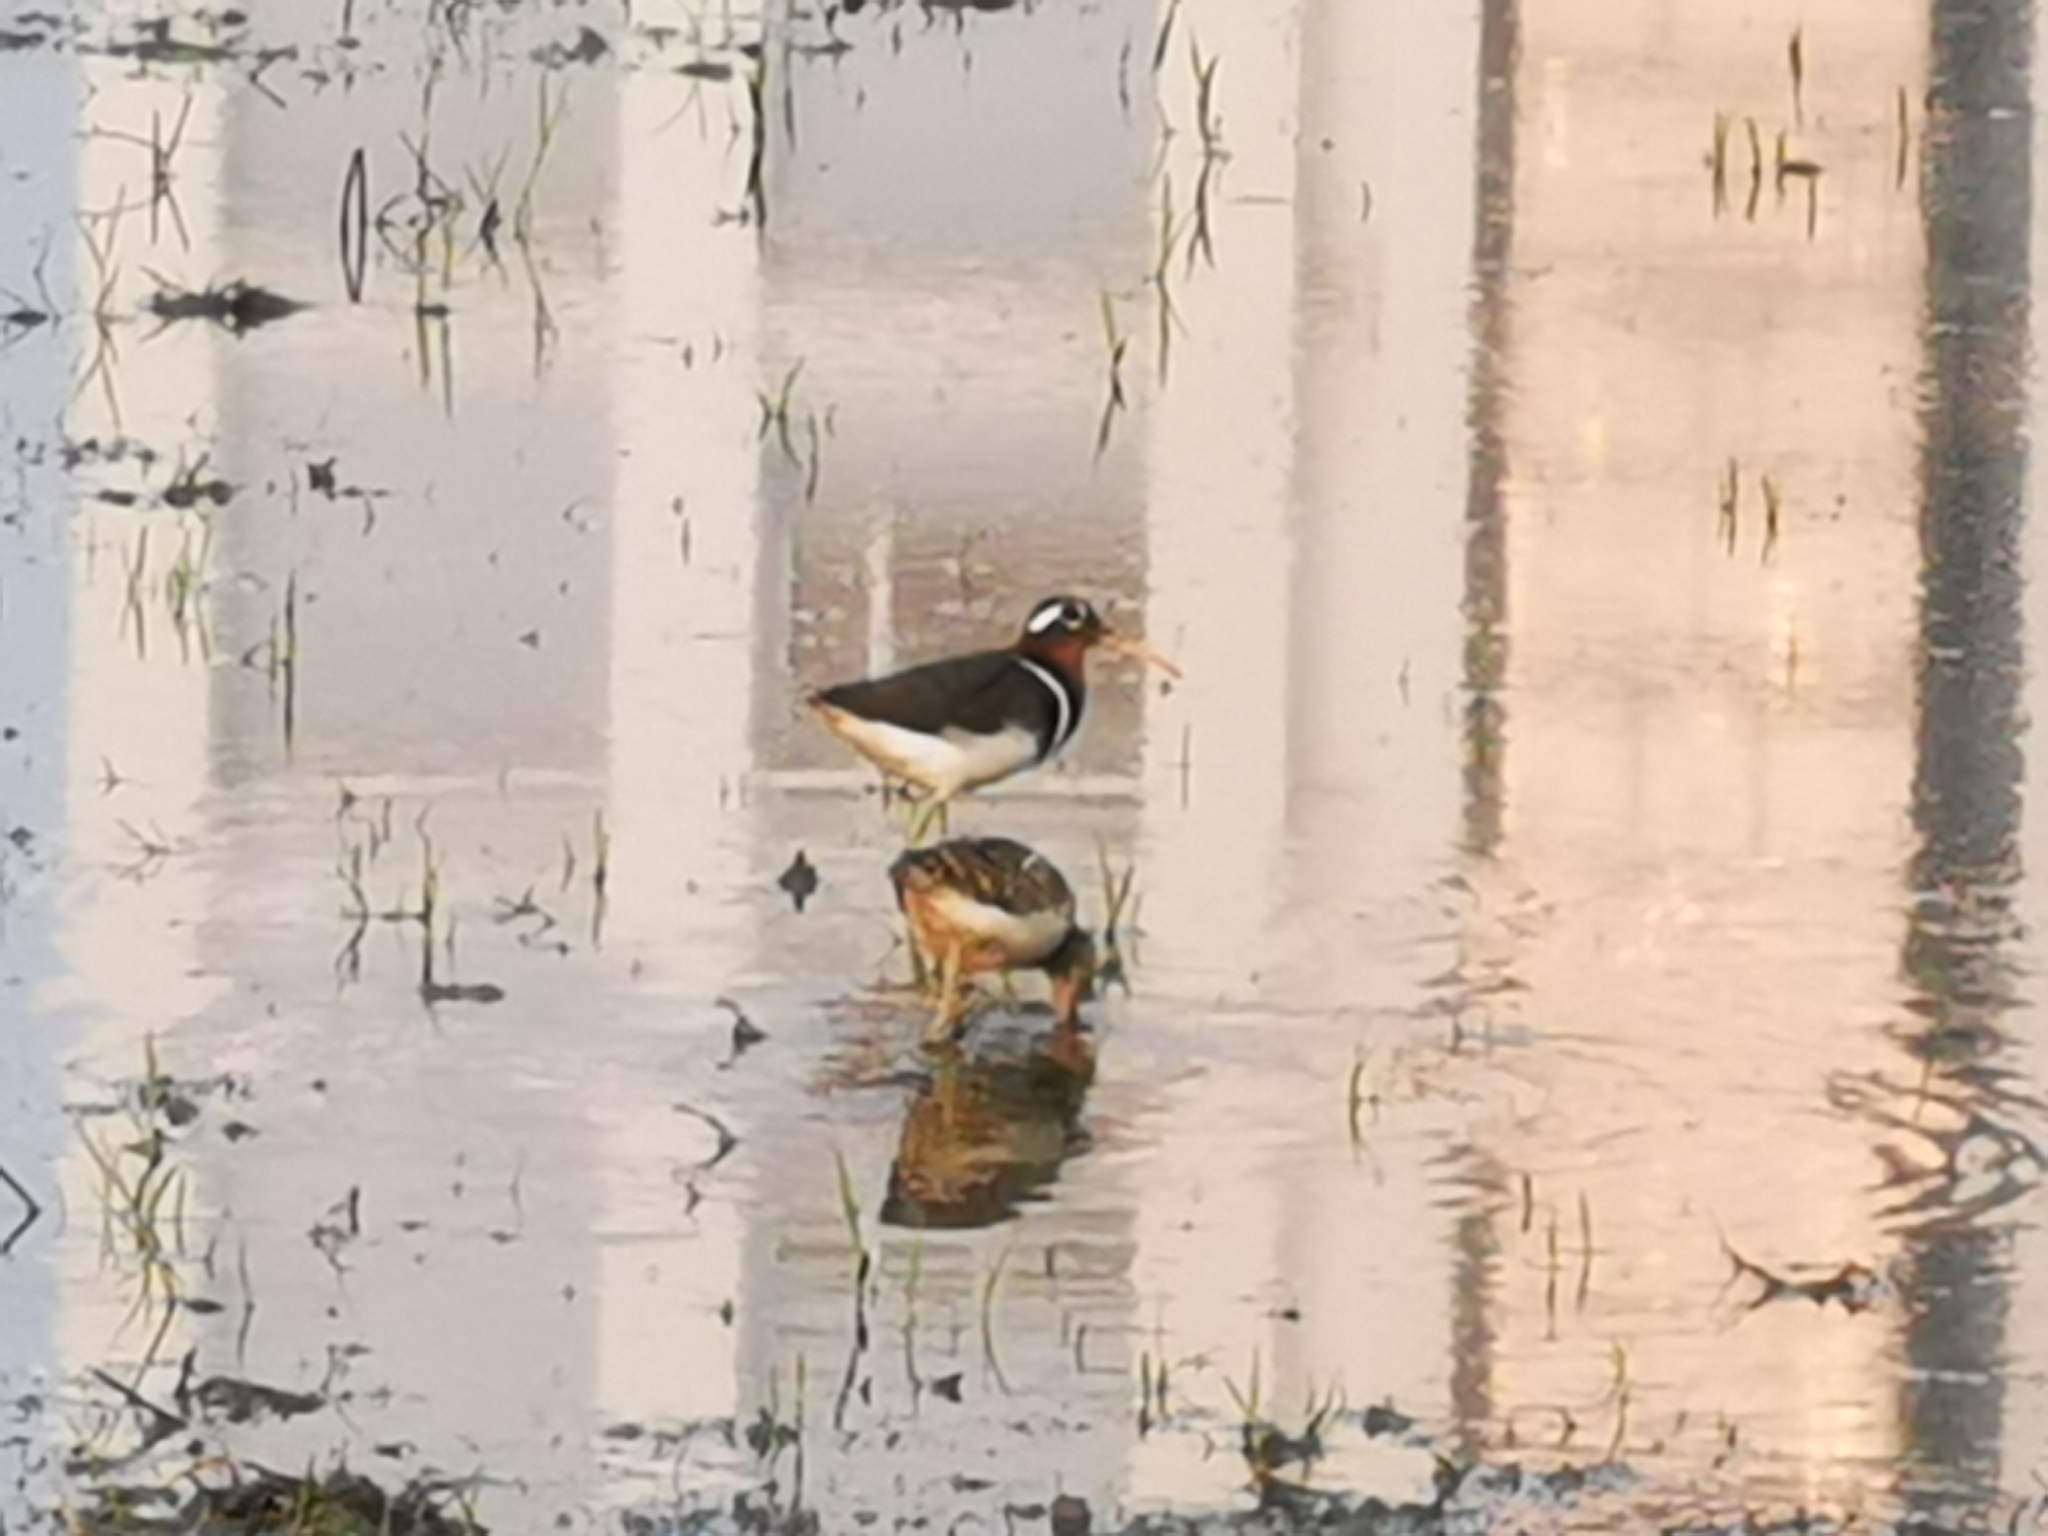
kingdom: Animalia
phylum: Chordata
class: Aves
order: Charadriiformes
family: Rostratulidae
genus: Rostratula
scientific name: Rostratula benghalensis
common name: Greater painted-snipe
